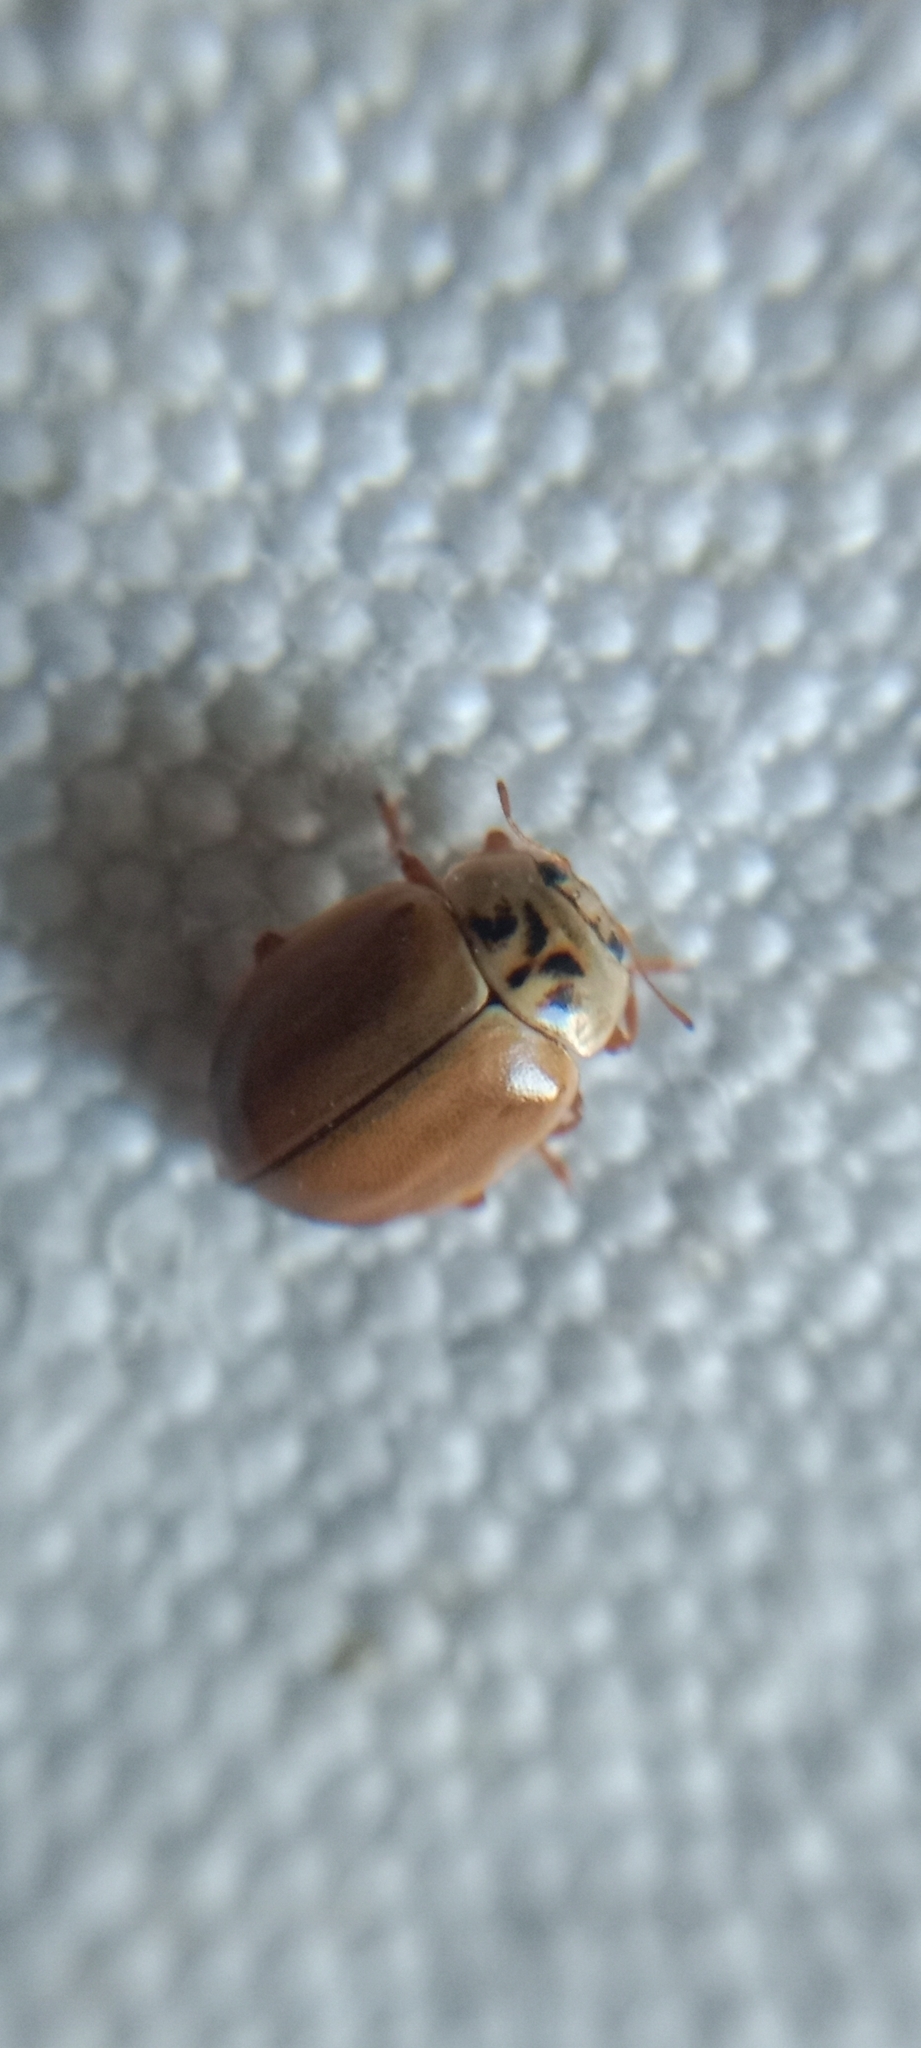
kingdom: Animalia
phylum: Arthropoda
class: Insecta
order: Coleoptera
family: Coccinellidae
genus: Aphidecta
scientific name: Aphidecta obliterata
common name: Larch ladybird
